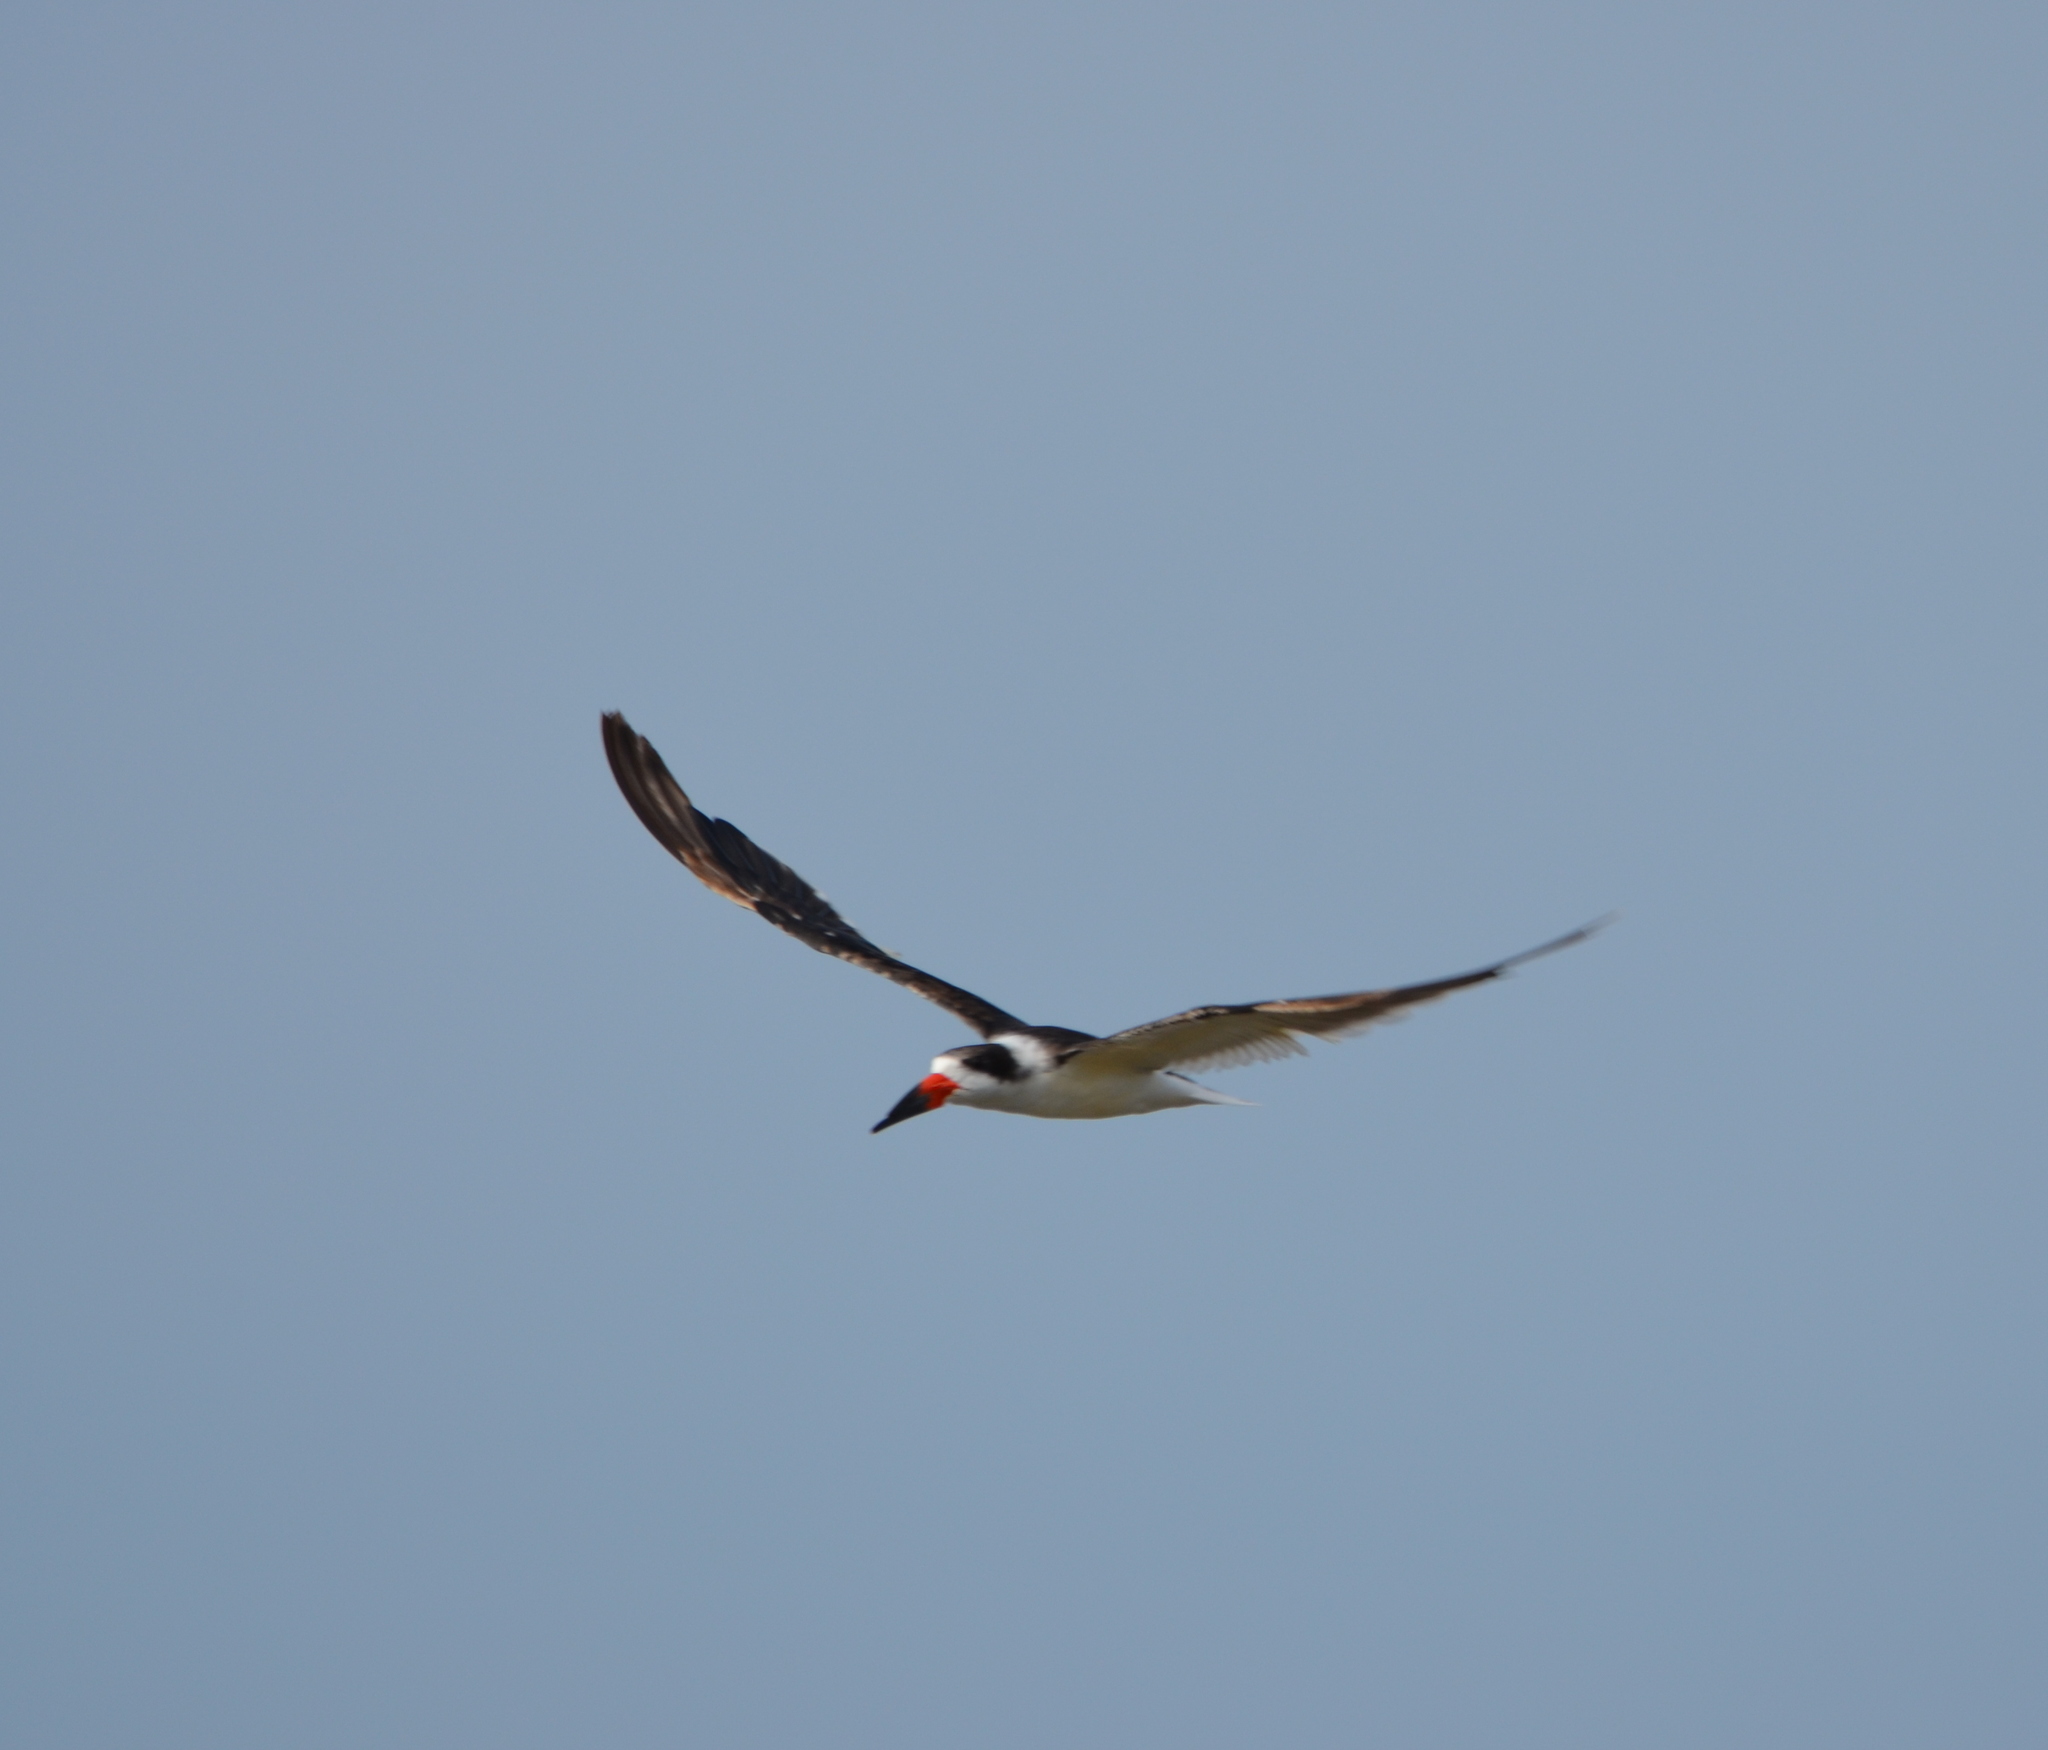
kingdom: Animalia
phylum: Chordata
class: Aves
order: Charadriiformes
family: Laridae
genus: Rynchops
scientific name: Rynchops niger
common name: Black skimmer
